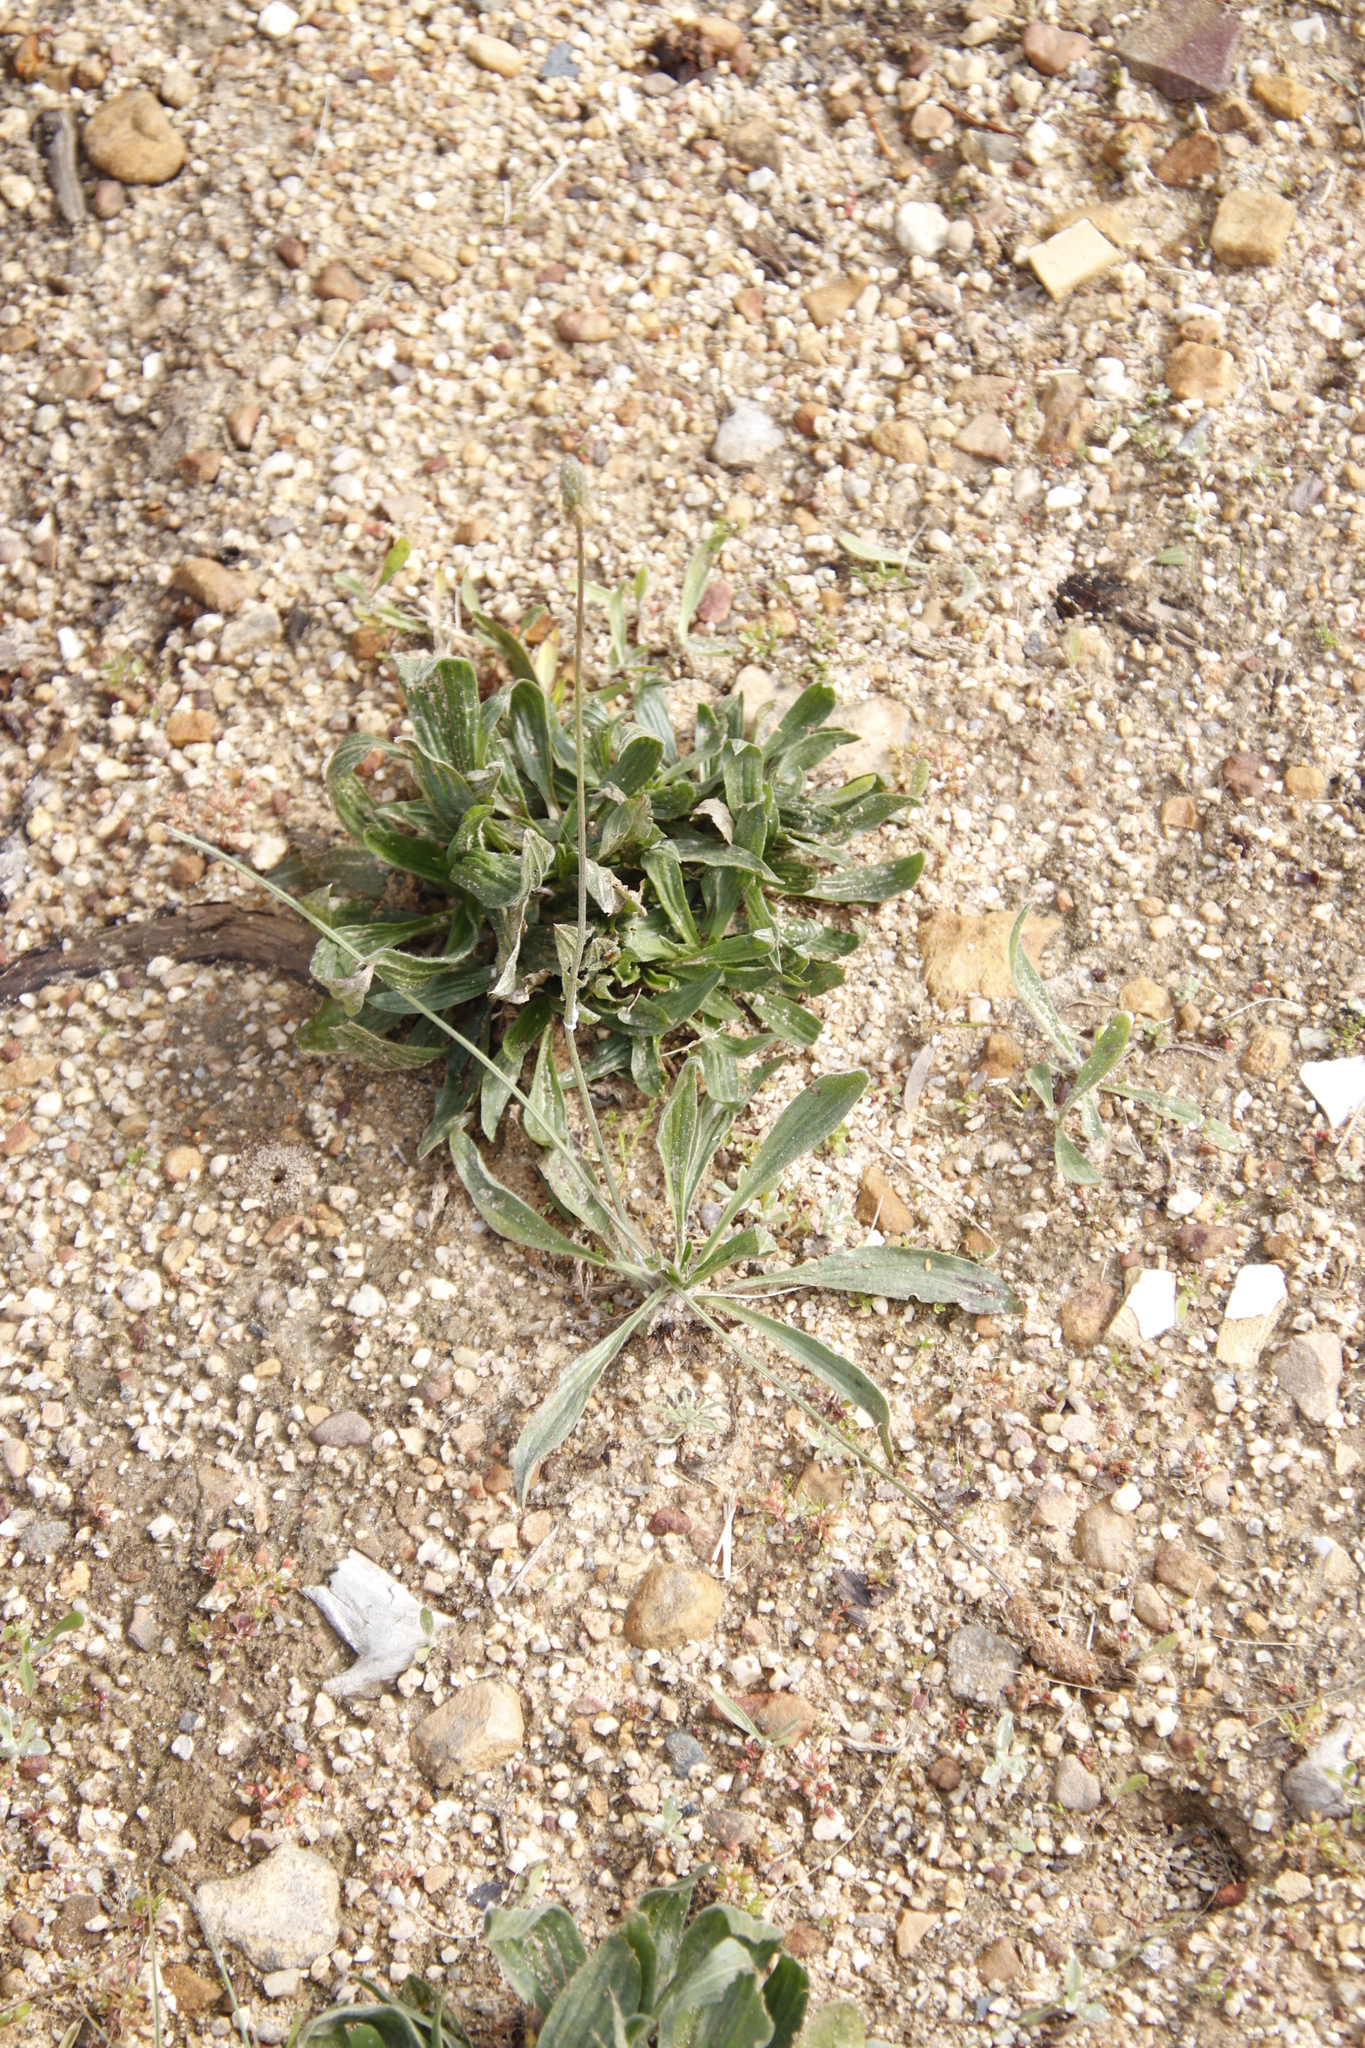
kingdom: Plantae
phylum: Tracheophyta
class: Magnoliopsida
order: Lamiales
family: Plantaginaceae
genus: Plantago
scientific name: Plantago lanceolata
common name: Ribwort plantain
